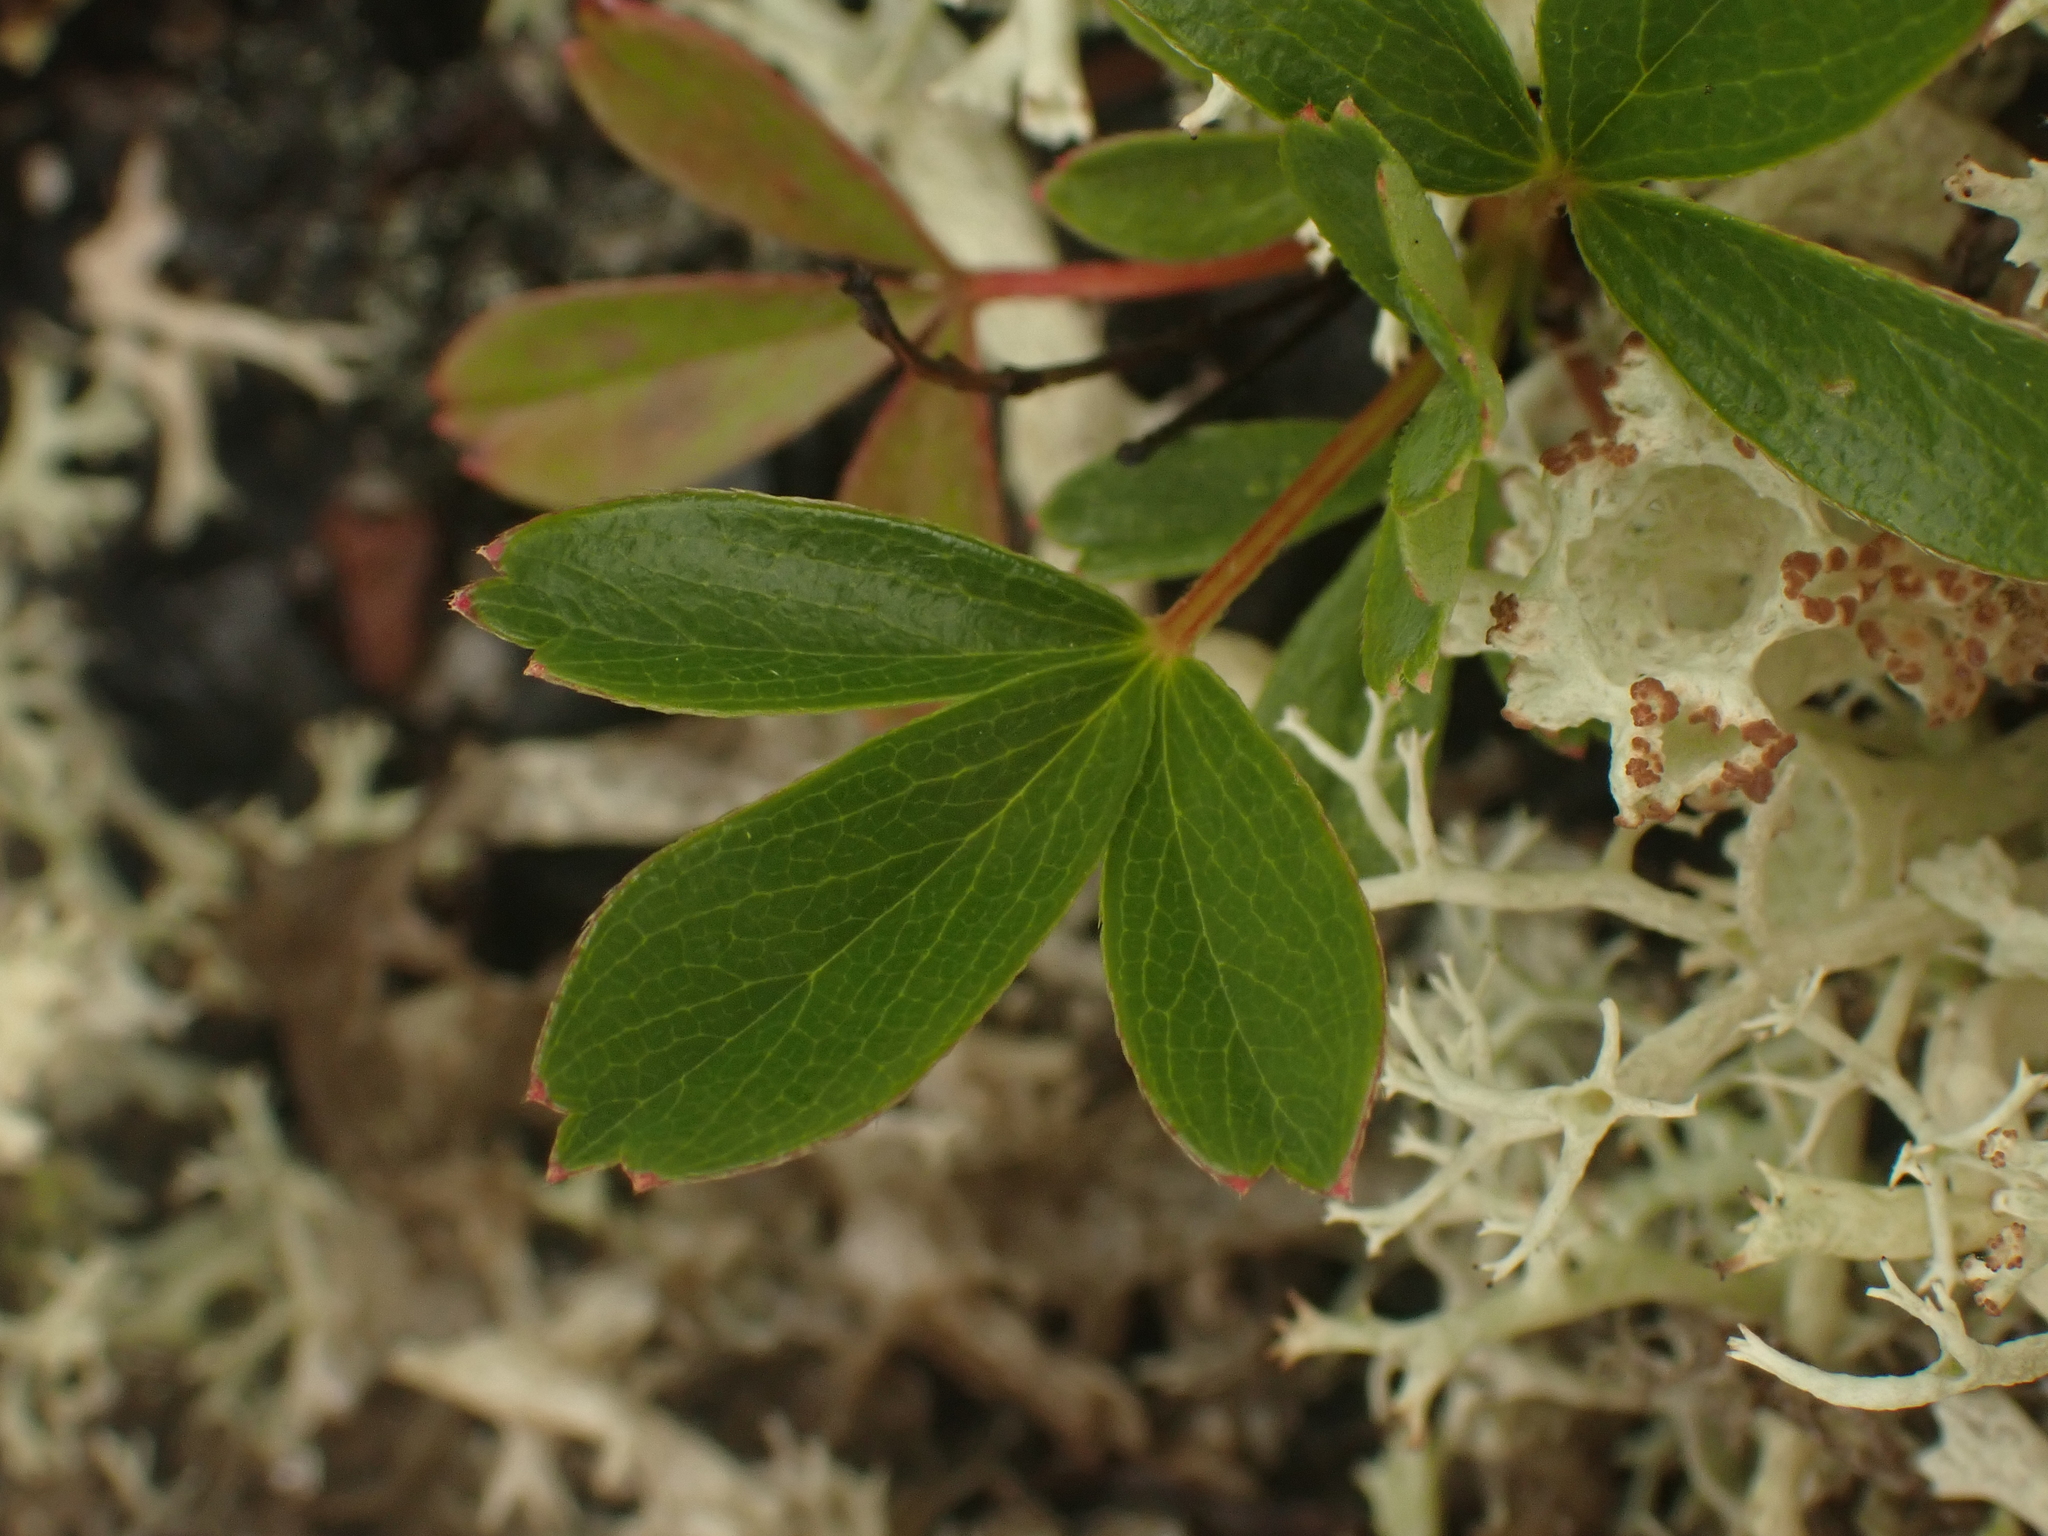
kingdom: Plantae
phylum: Tracheophyta
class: Magnoliopsida
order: Rosales
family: Rosaceae
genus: Sibbaldia
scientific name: Sibbaldia tridentata
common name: Three-toothed cinquefoil
